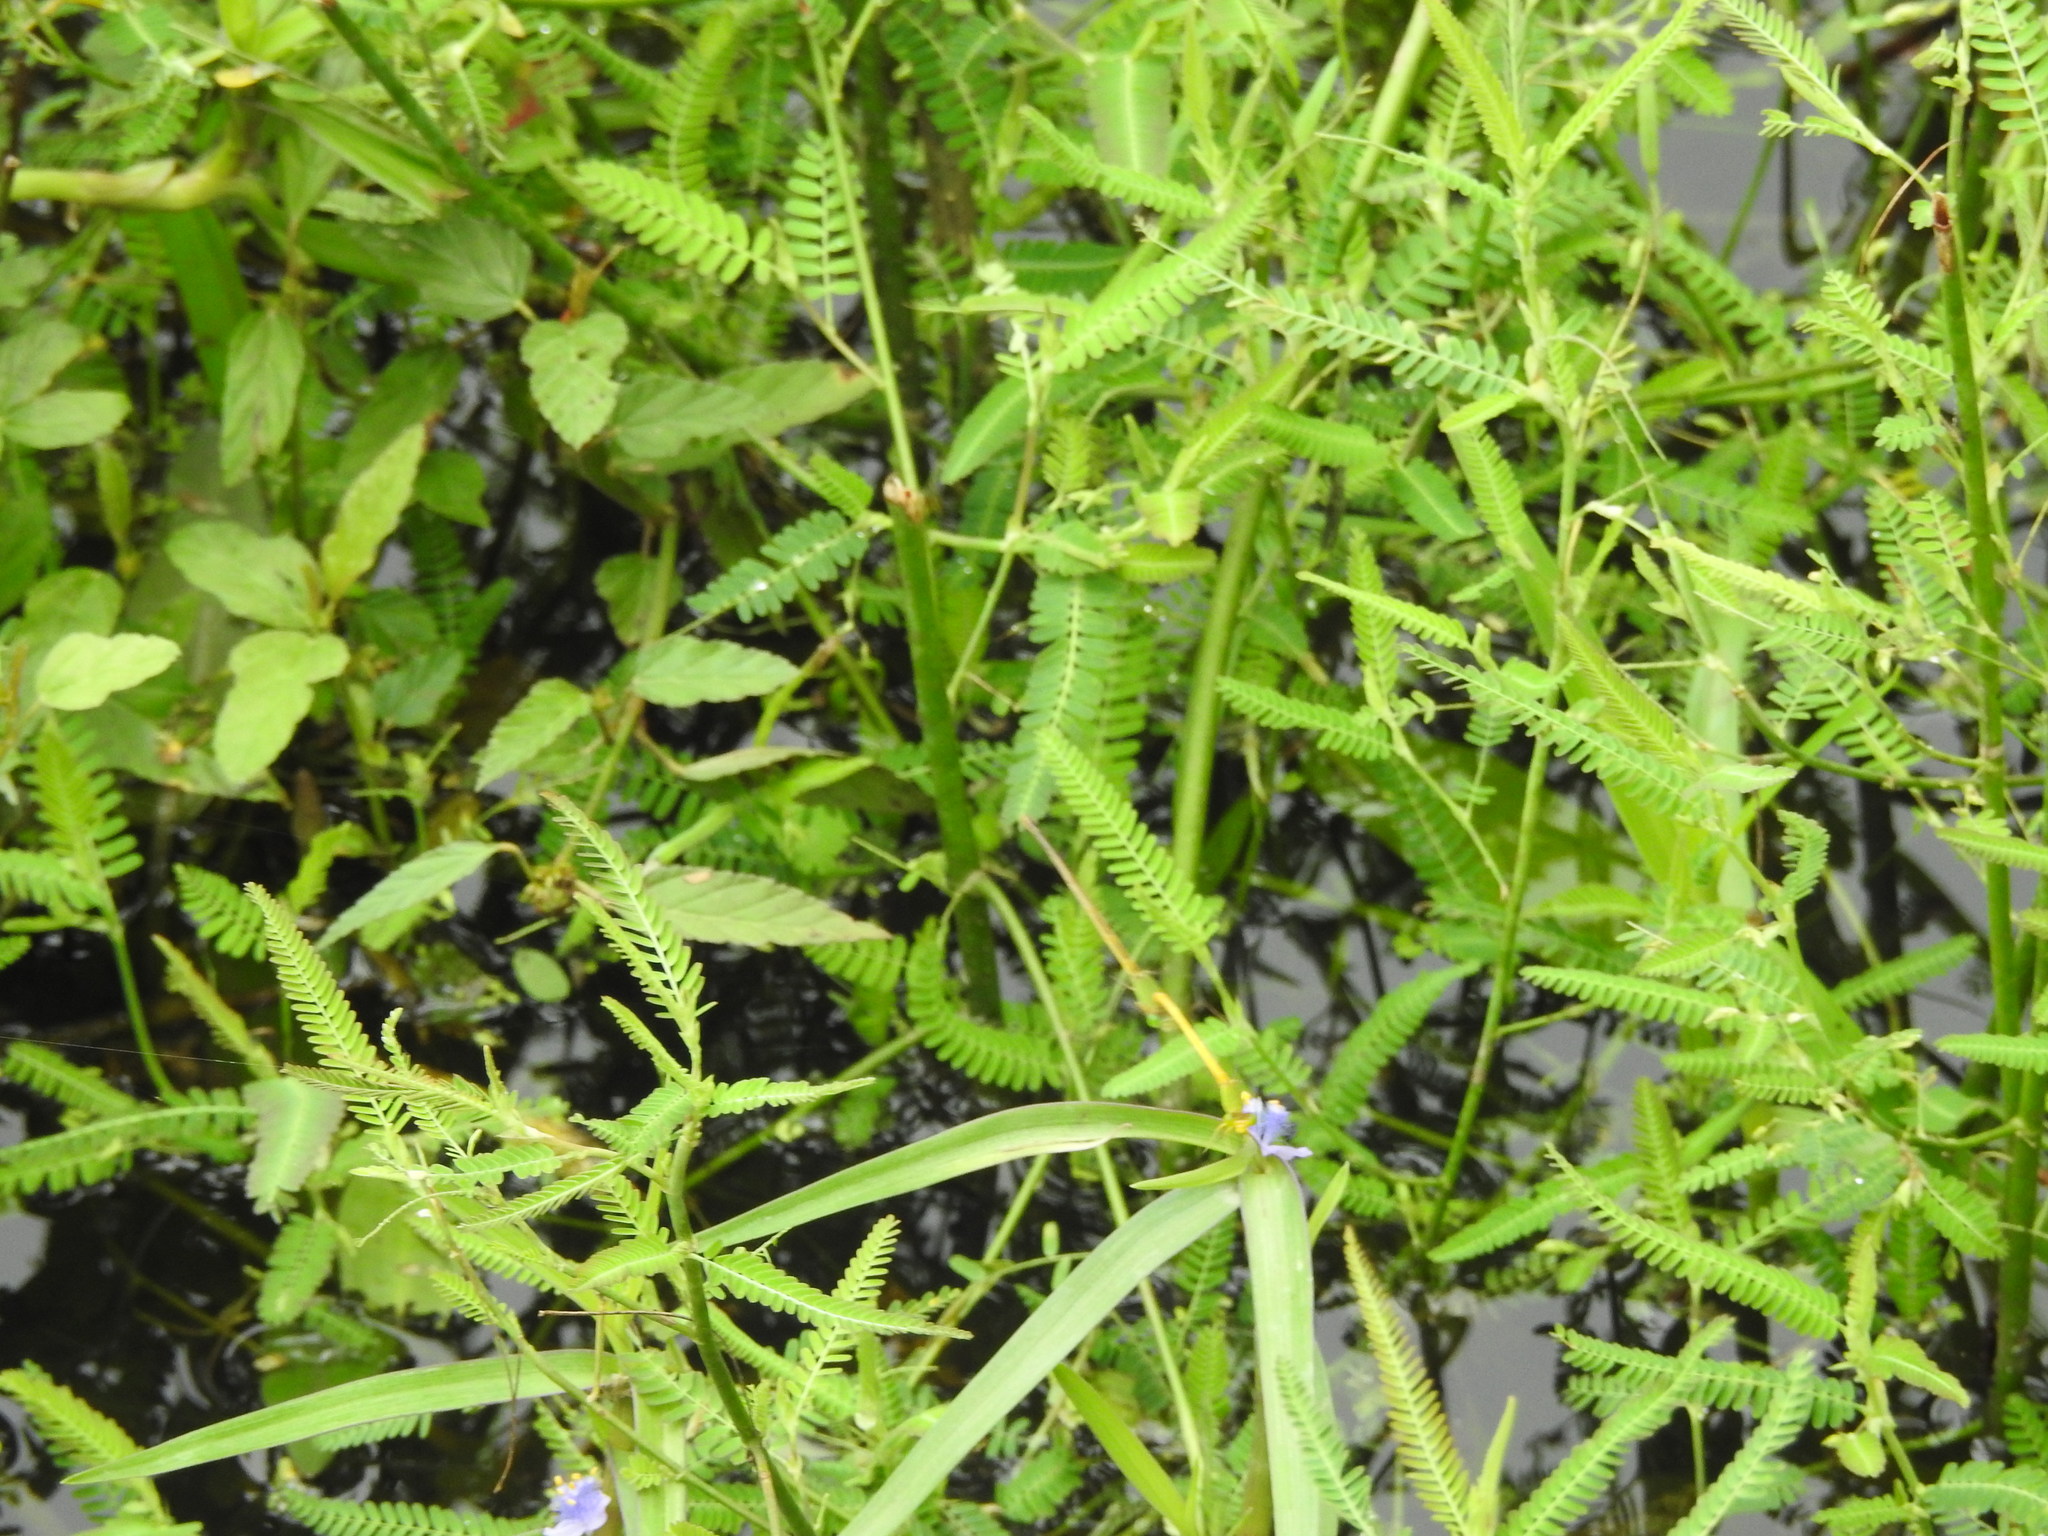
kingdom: Animalia
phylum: Arthropoda
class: Insecta
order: Odonata
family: Coenagrionidae
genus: Ceriagrion
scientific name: Ceriagrion coromandelianum
